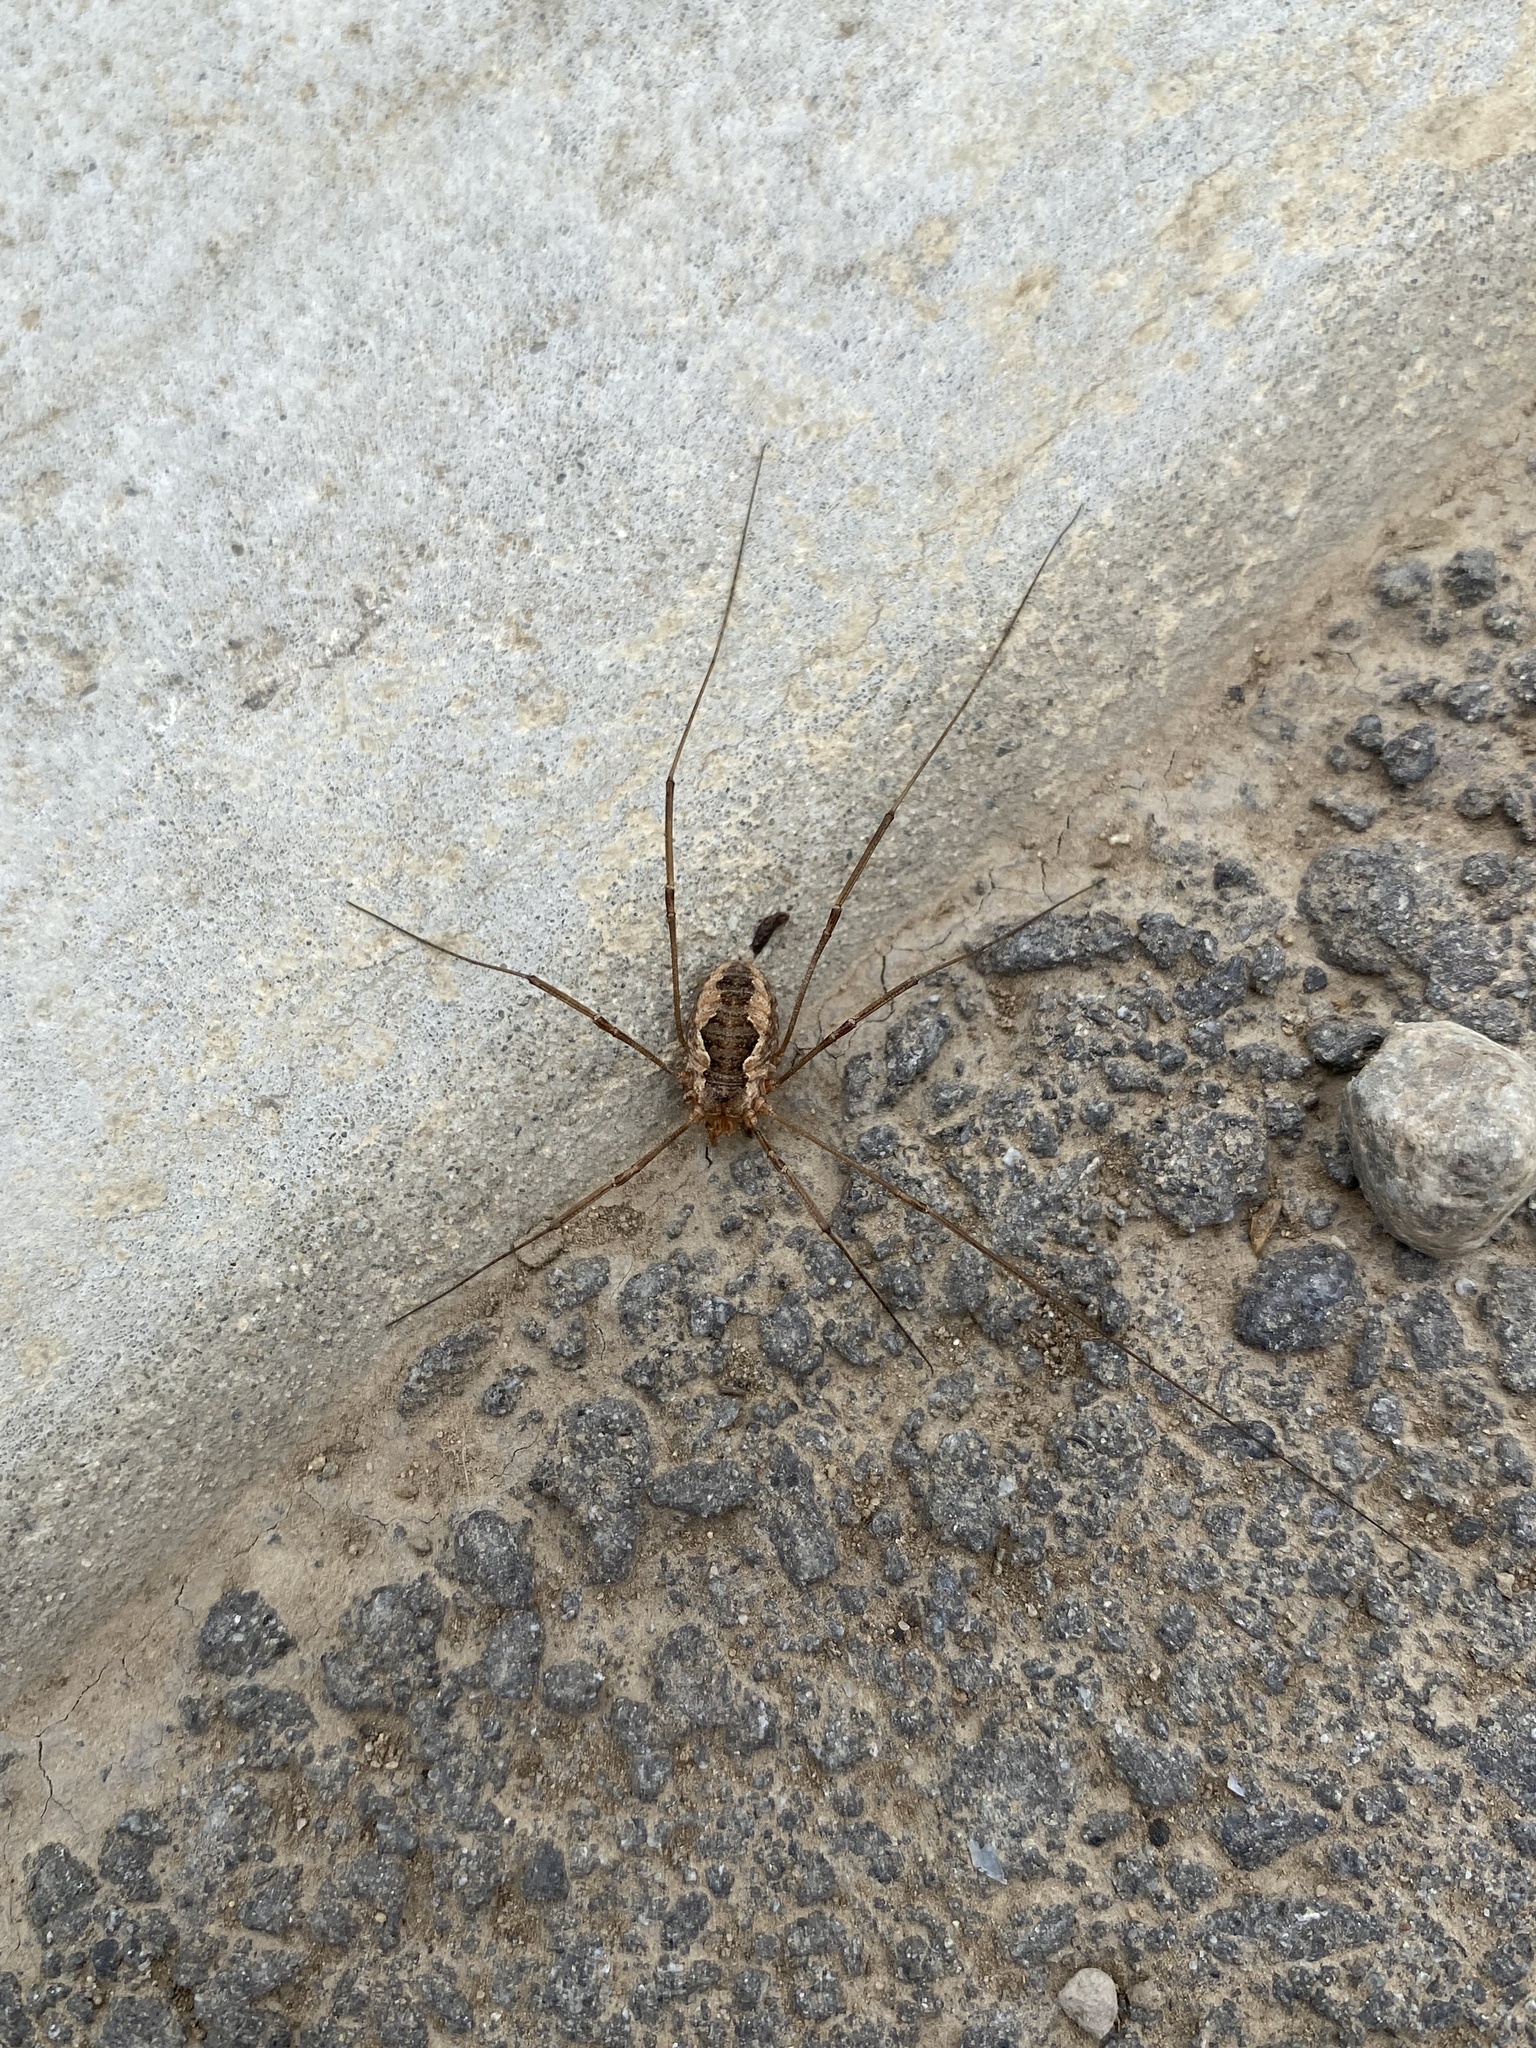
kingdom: Animalia
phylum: Arthropoda
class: Arachnida
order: Opiliones
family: Phalangiidae
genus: Phalangium
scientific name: Phalangium opilio
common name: Daddy longleg
